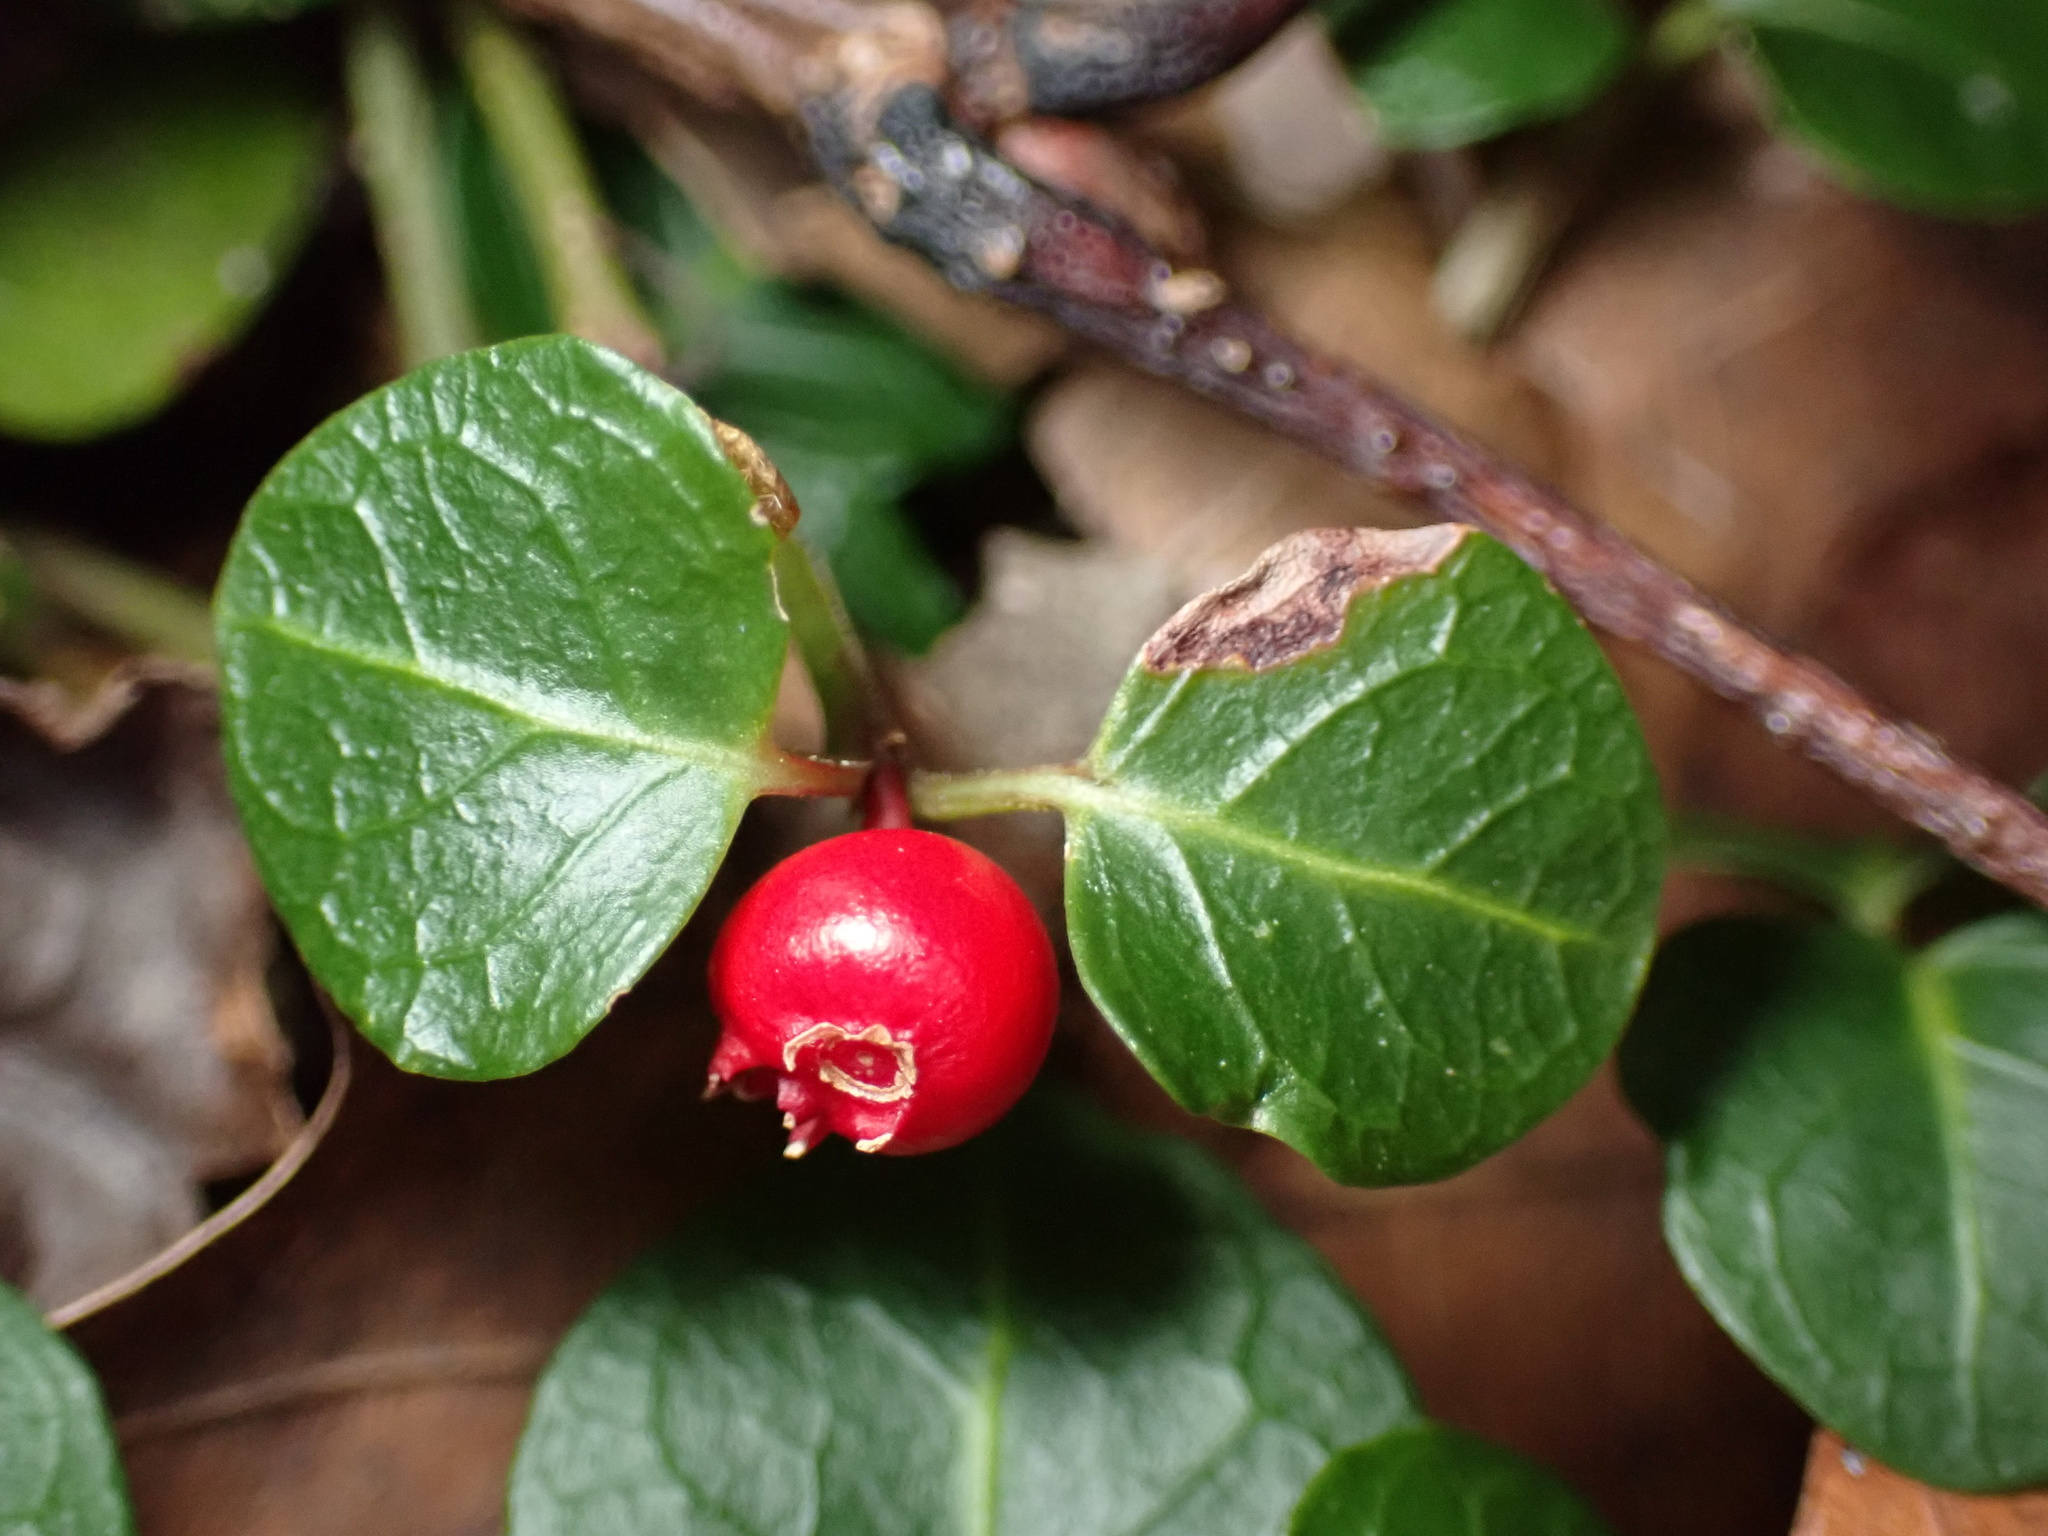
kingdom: Plantae
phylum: Tracheophyta
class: Magnoliopsida
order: Gentianales
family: Rubiaceae
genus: Mitchella
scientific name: Mitchella repens
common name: Partridge-berry
